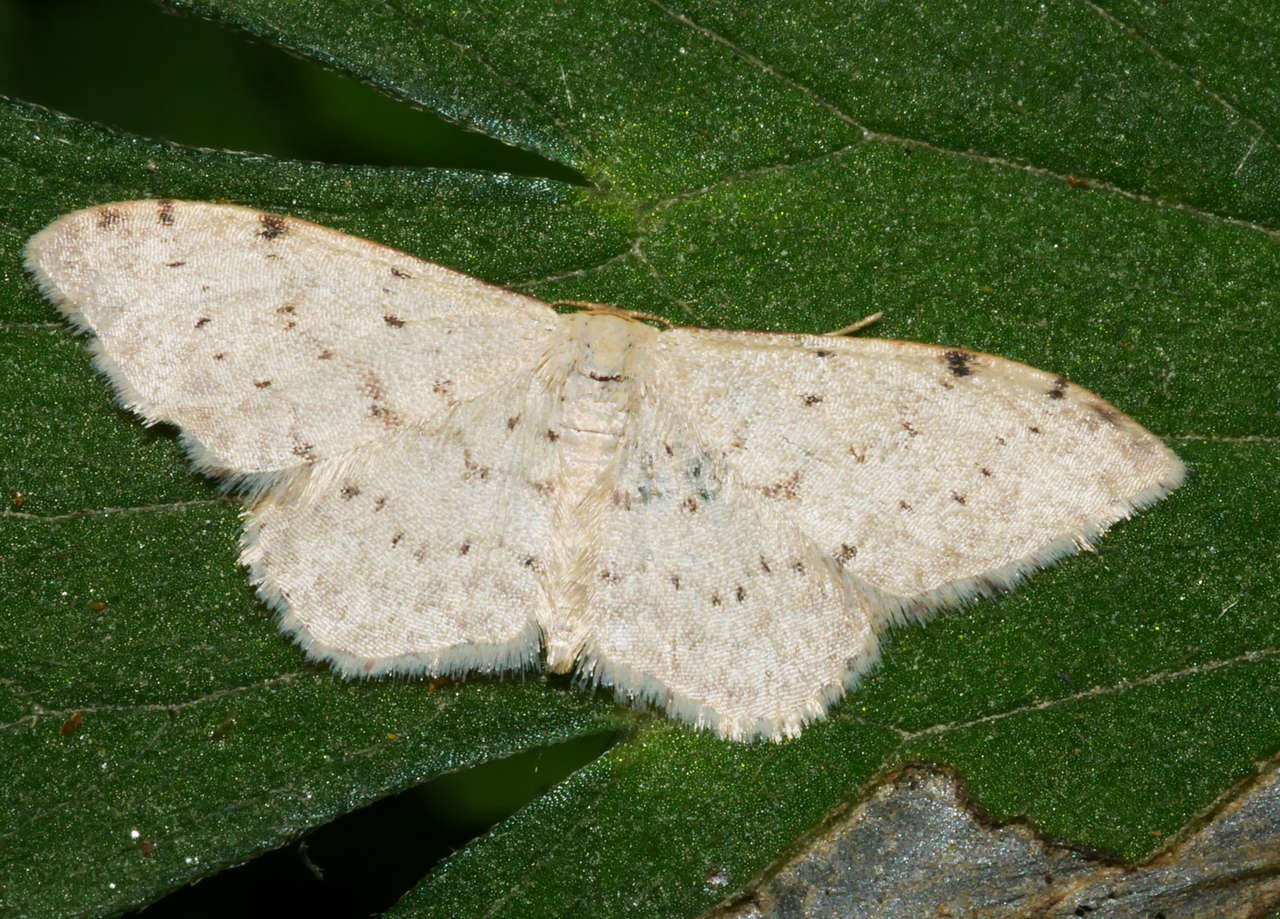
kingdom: Animalia
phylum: Arthropoda
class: Insecta
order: Lepidoptera
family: Geometridae
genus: Idaea
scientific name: Idaea halmaea
